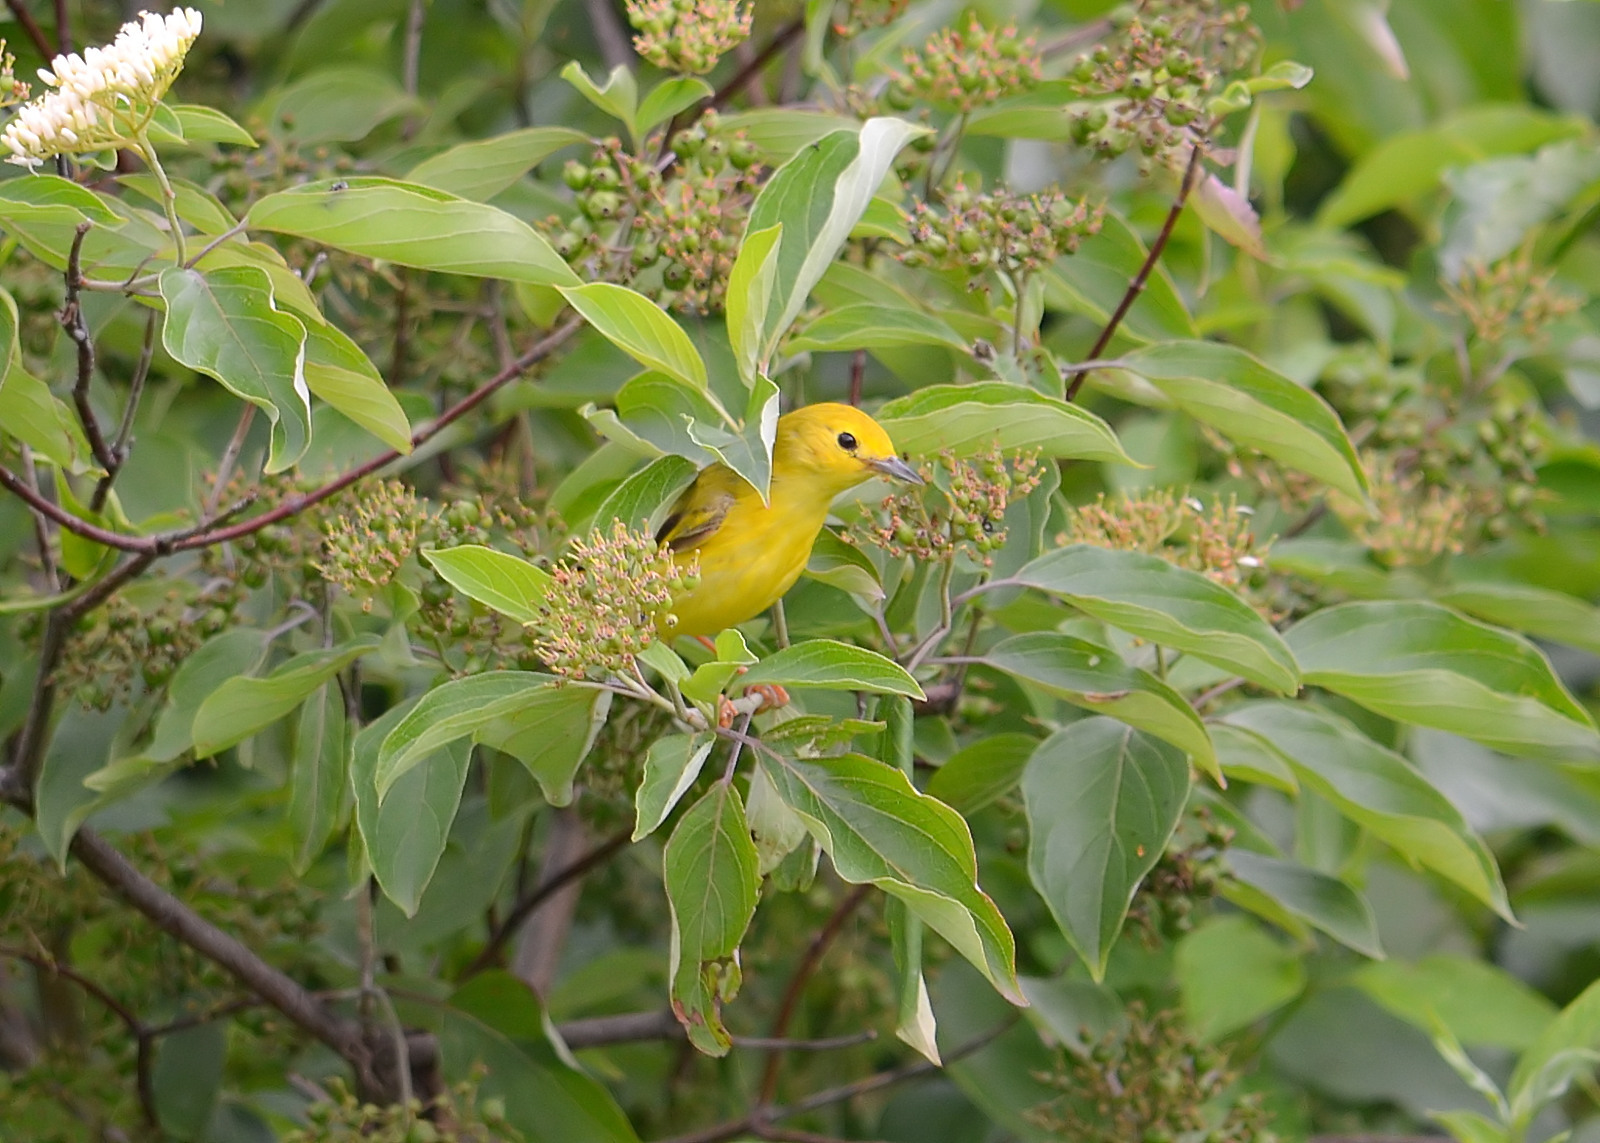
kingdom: Animalia
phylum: Chordata
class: Aves
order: Passeriformes
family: Parulidae
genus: Setophaga
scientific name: Setophaga petechia
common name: Yellow warbler
